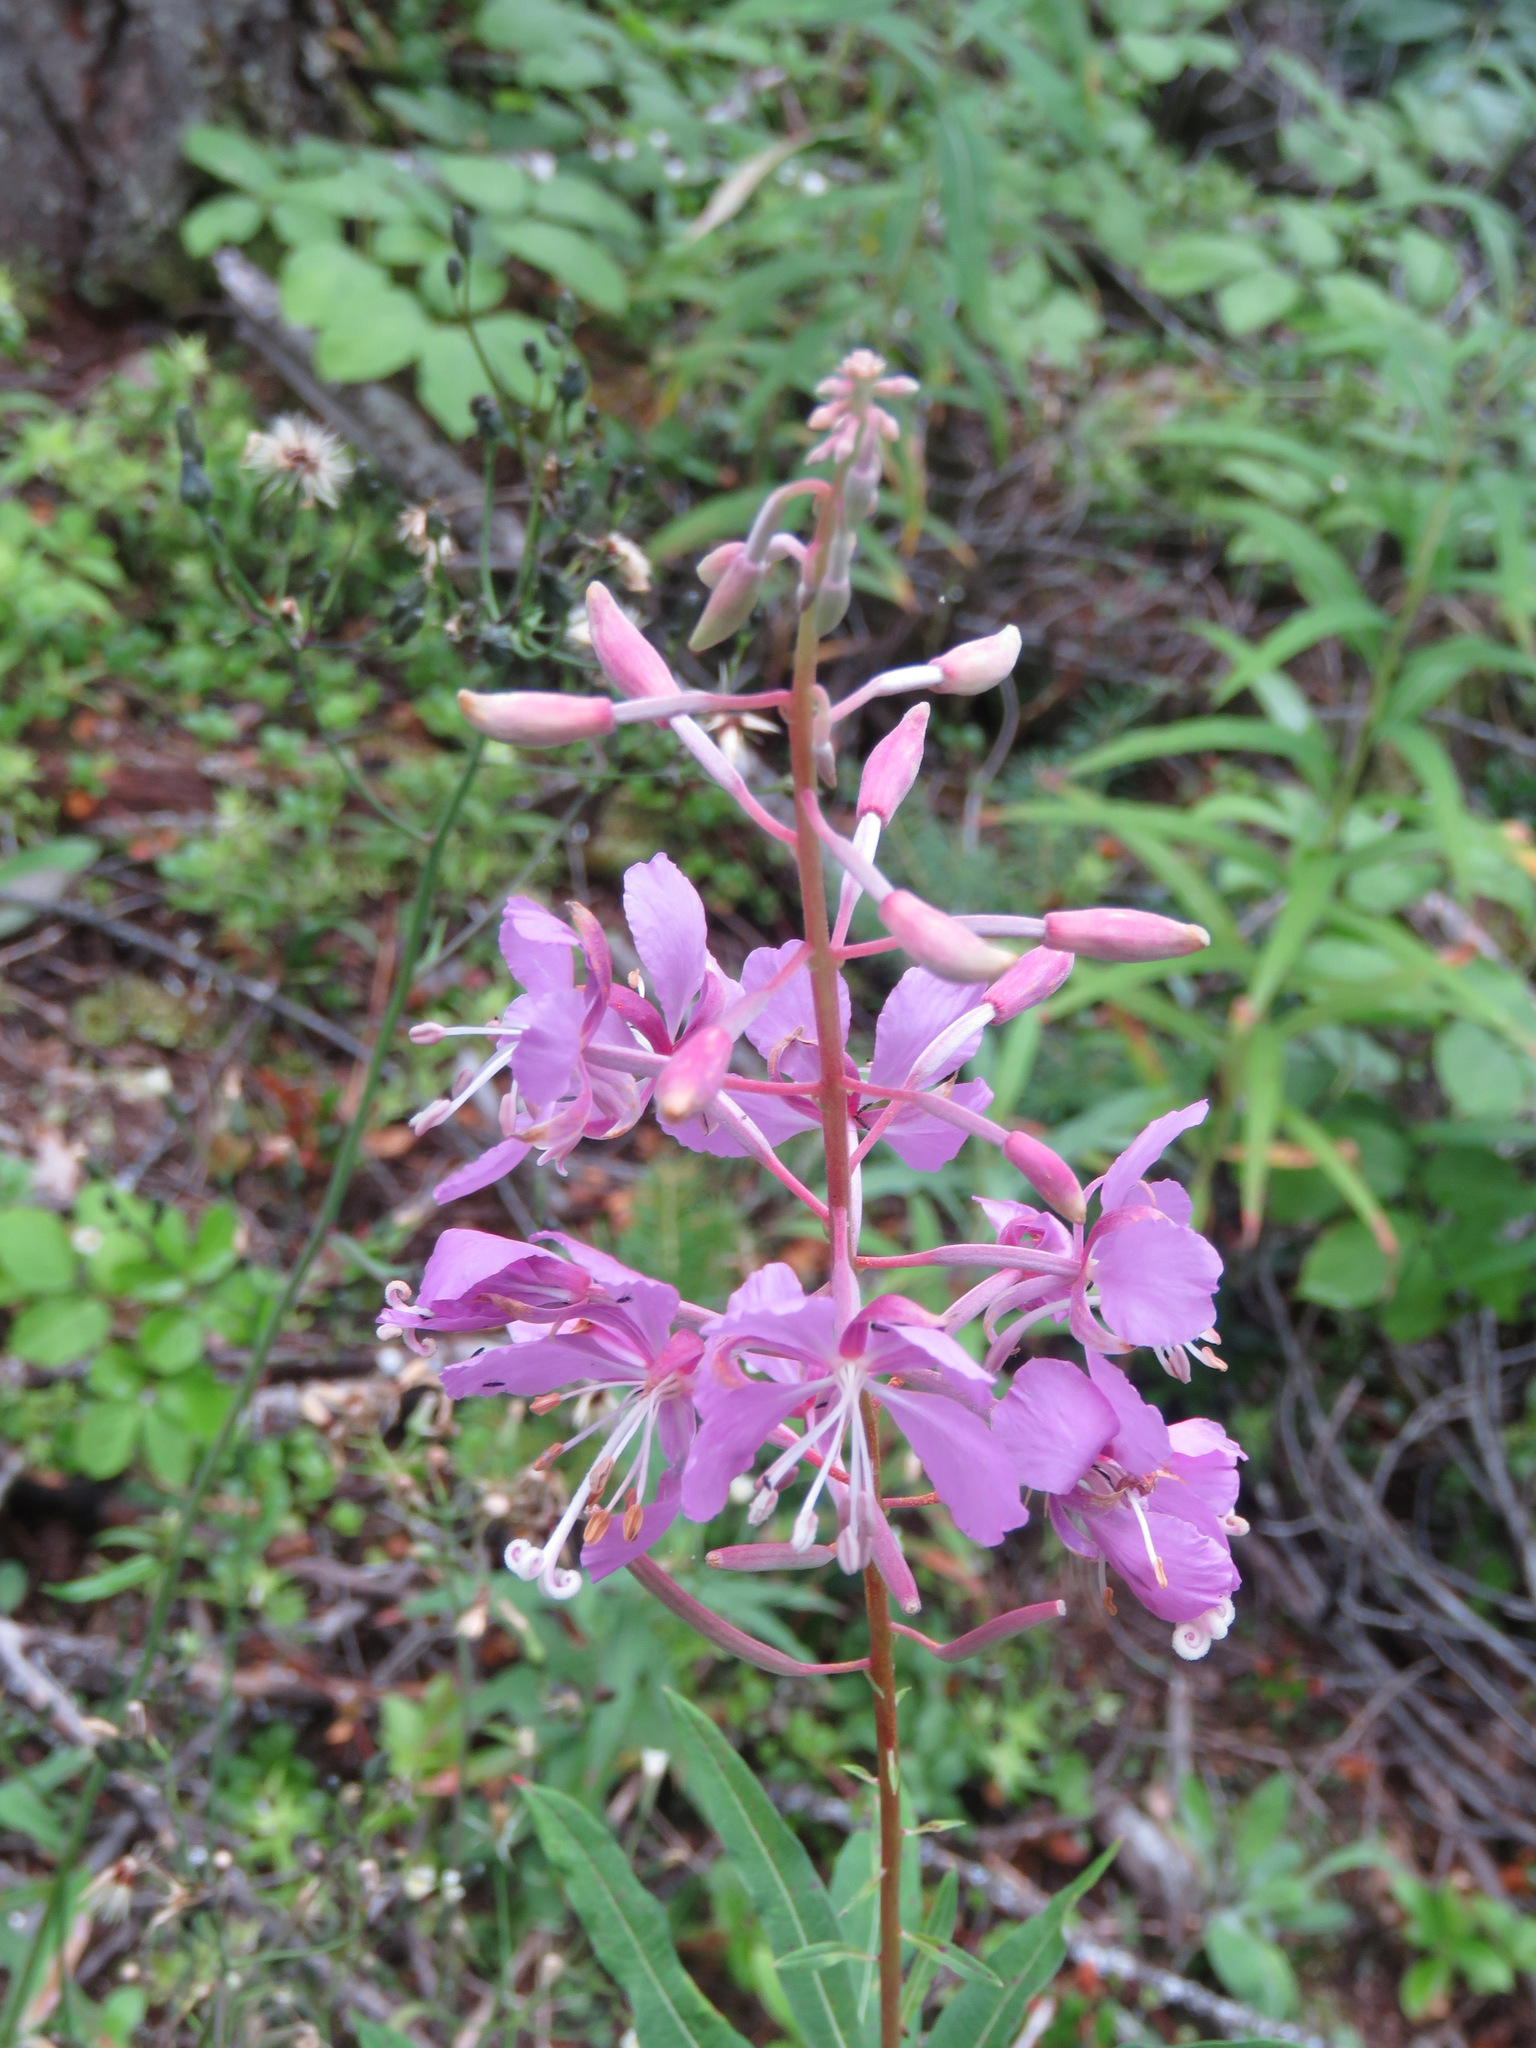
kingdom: Plantae
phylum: Tracheophyta
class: Magnoliopsida
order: Myrtales
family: Onagraceae
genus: Chamaenerion
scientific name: Chamaenerion angustifolium
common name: Fireweed
